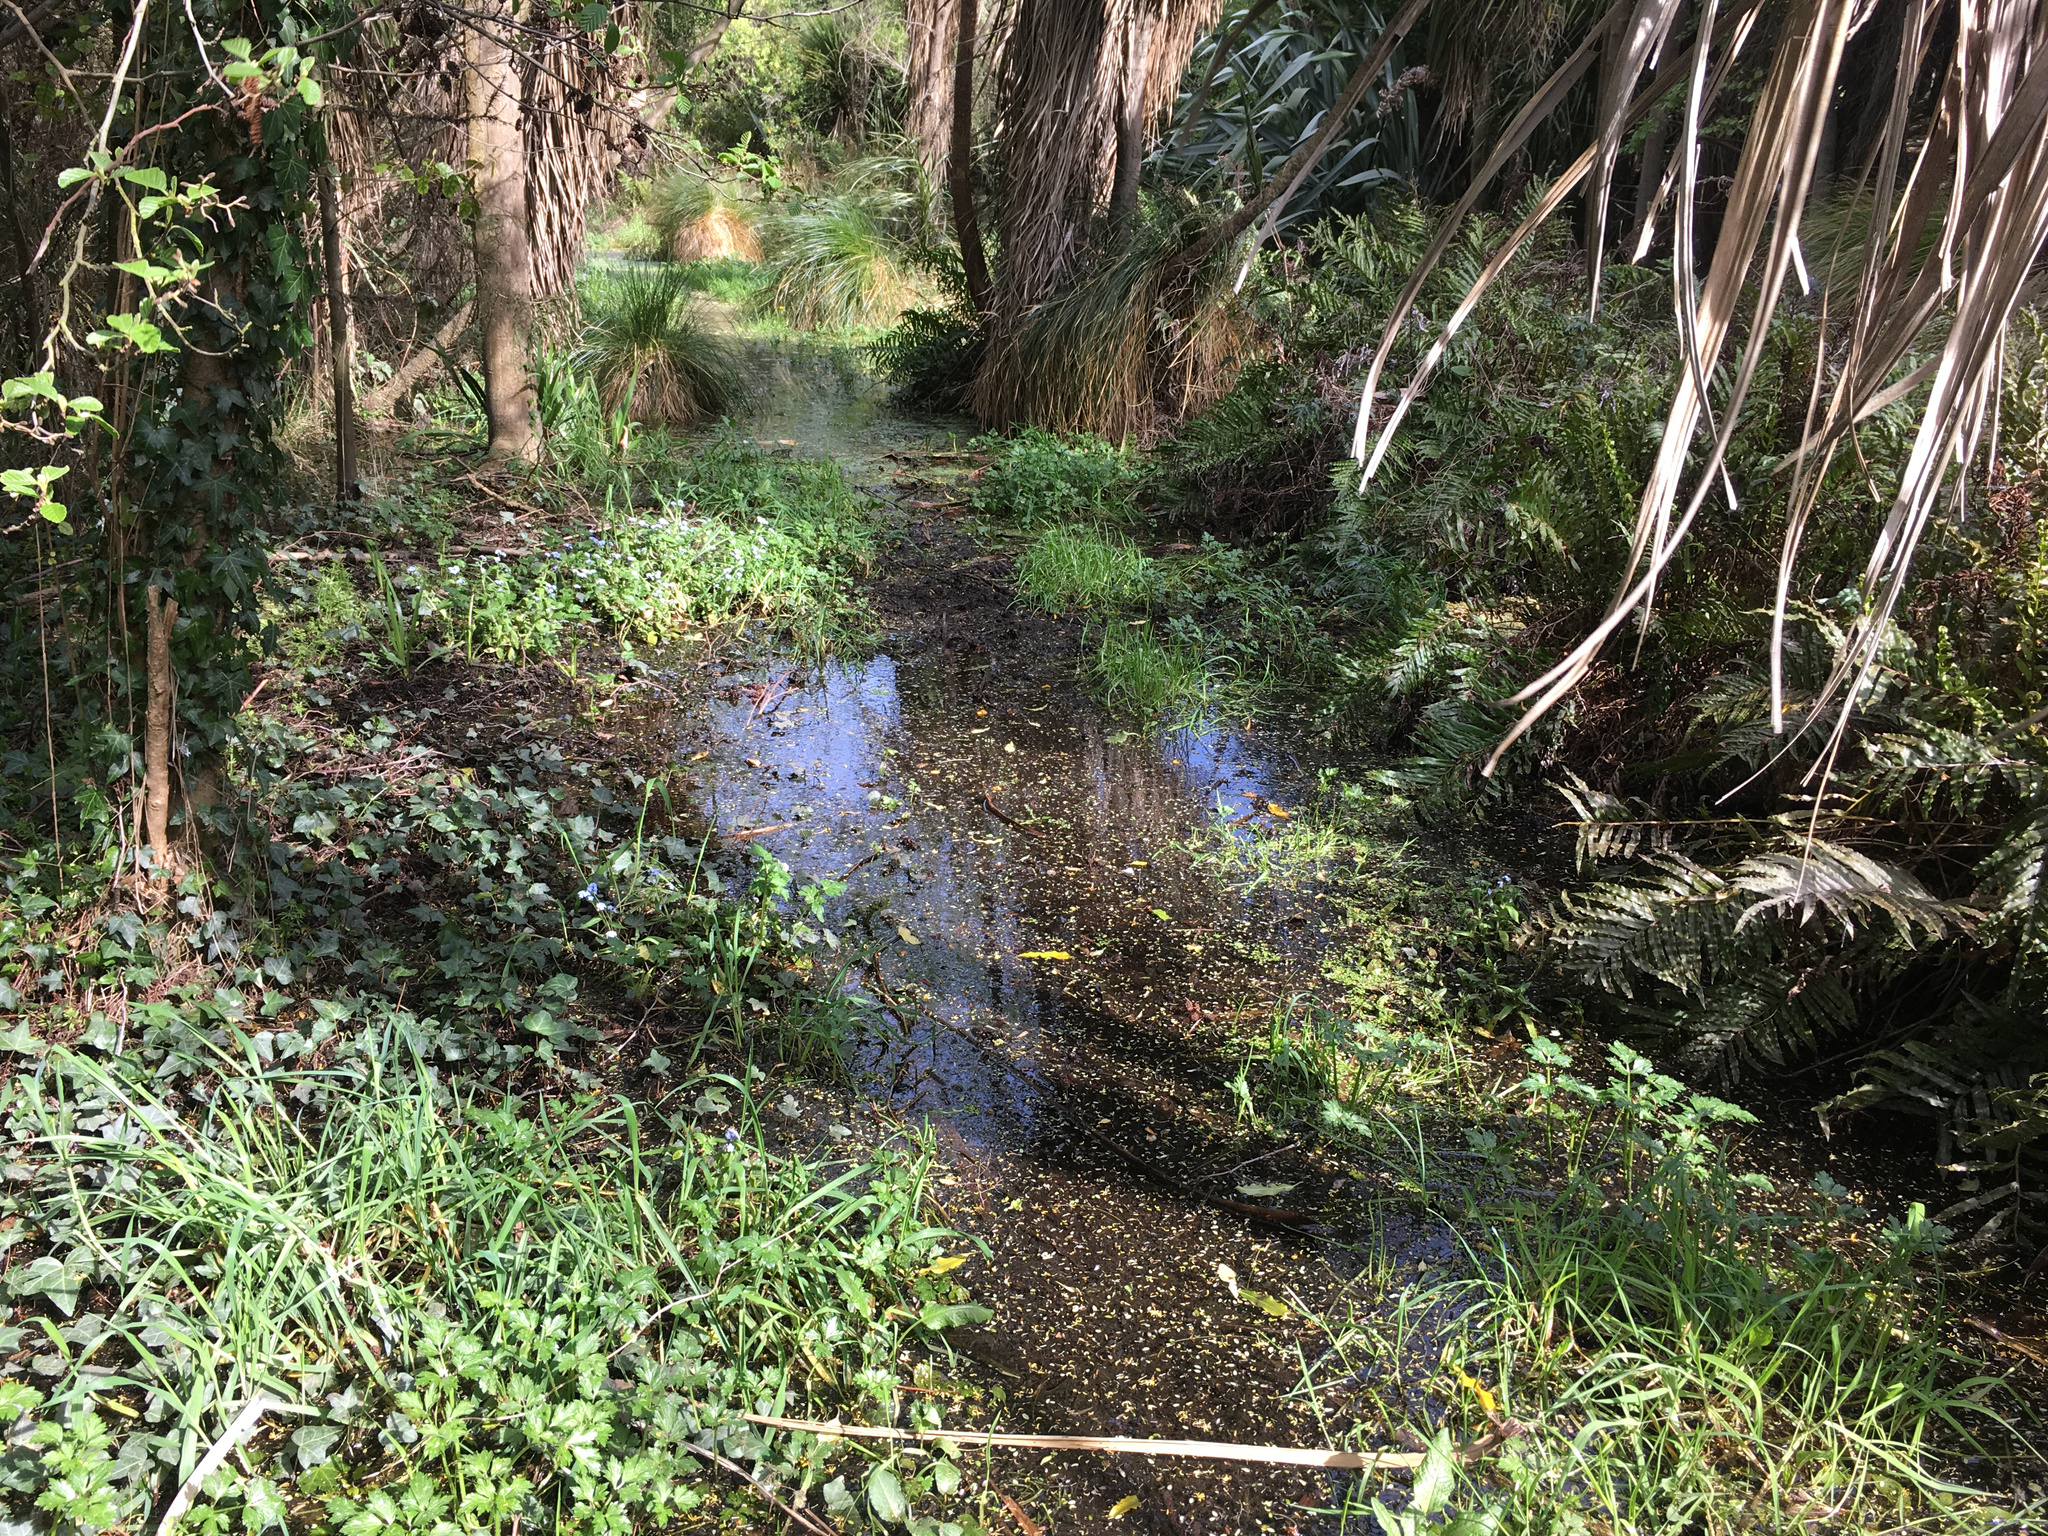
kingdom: Plantae
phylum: Tracheophyta
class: Magnoliopsida
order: Apiales
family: Araliaceae
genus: Hedera
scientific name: Hedera helix
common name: Ivy
